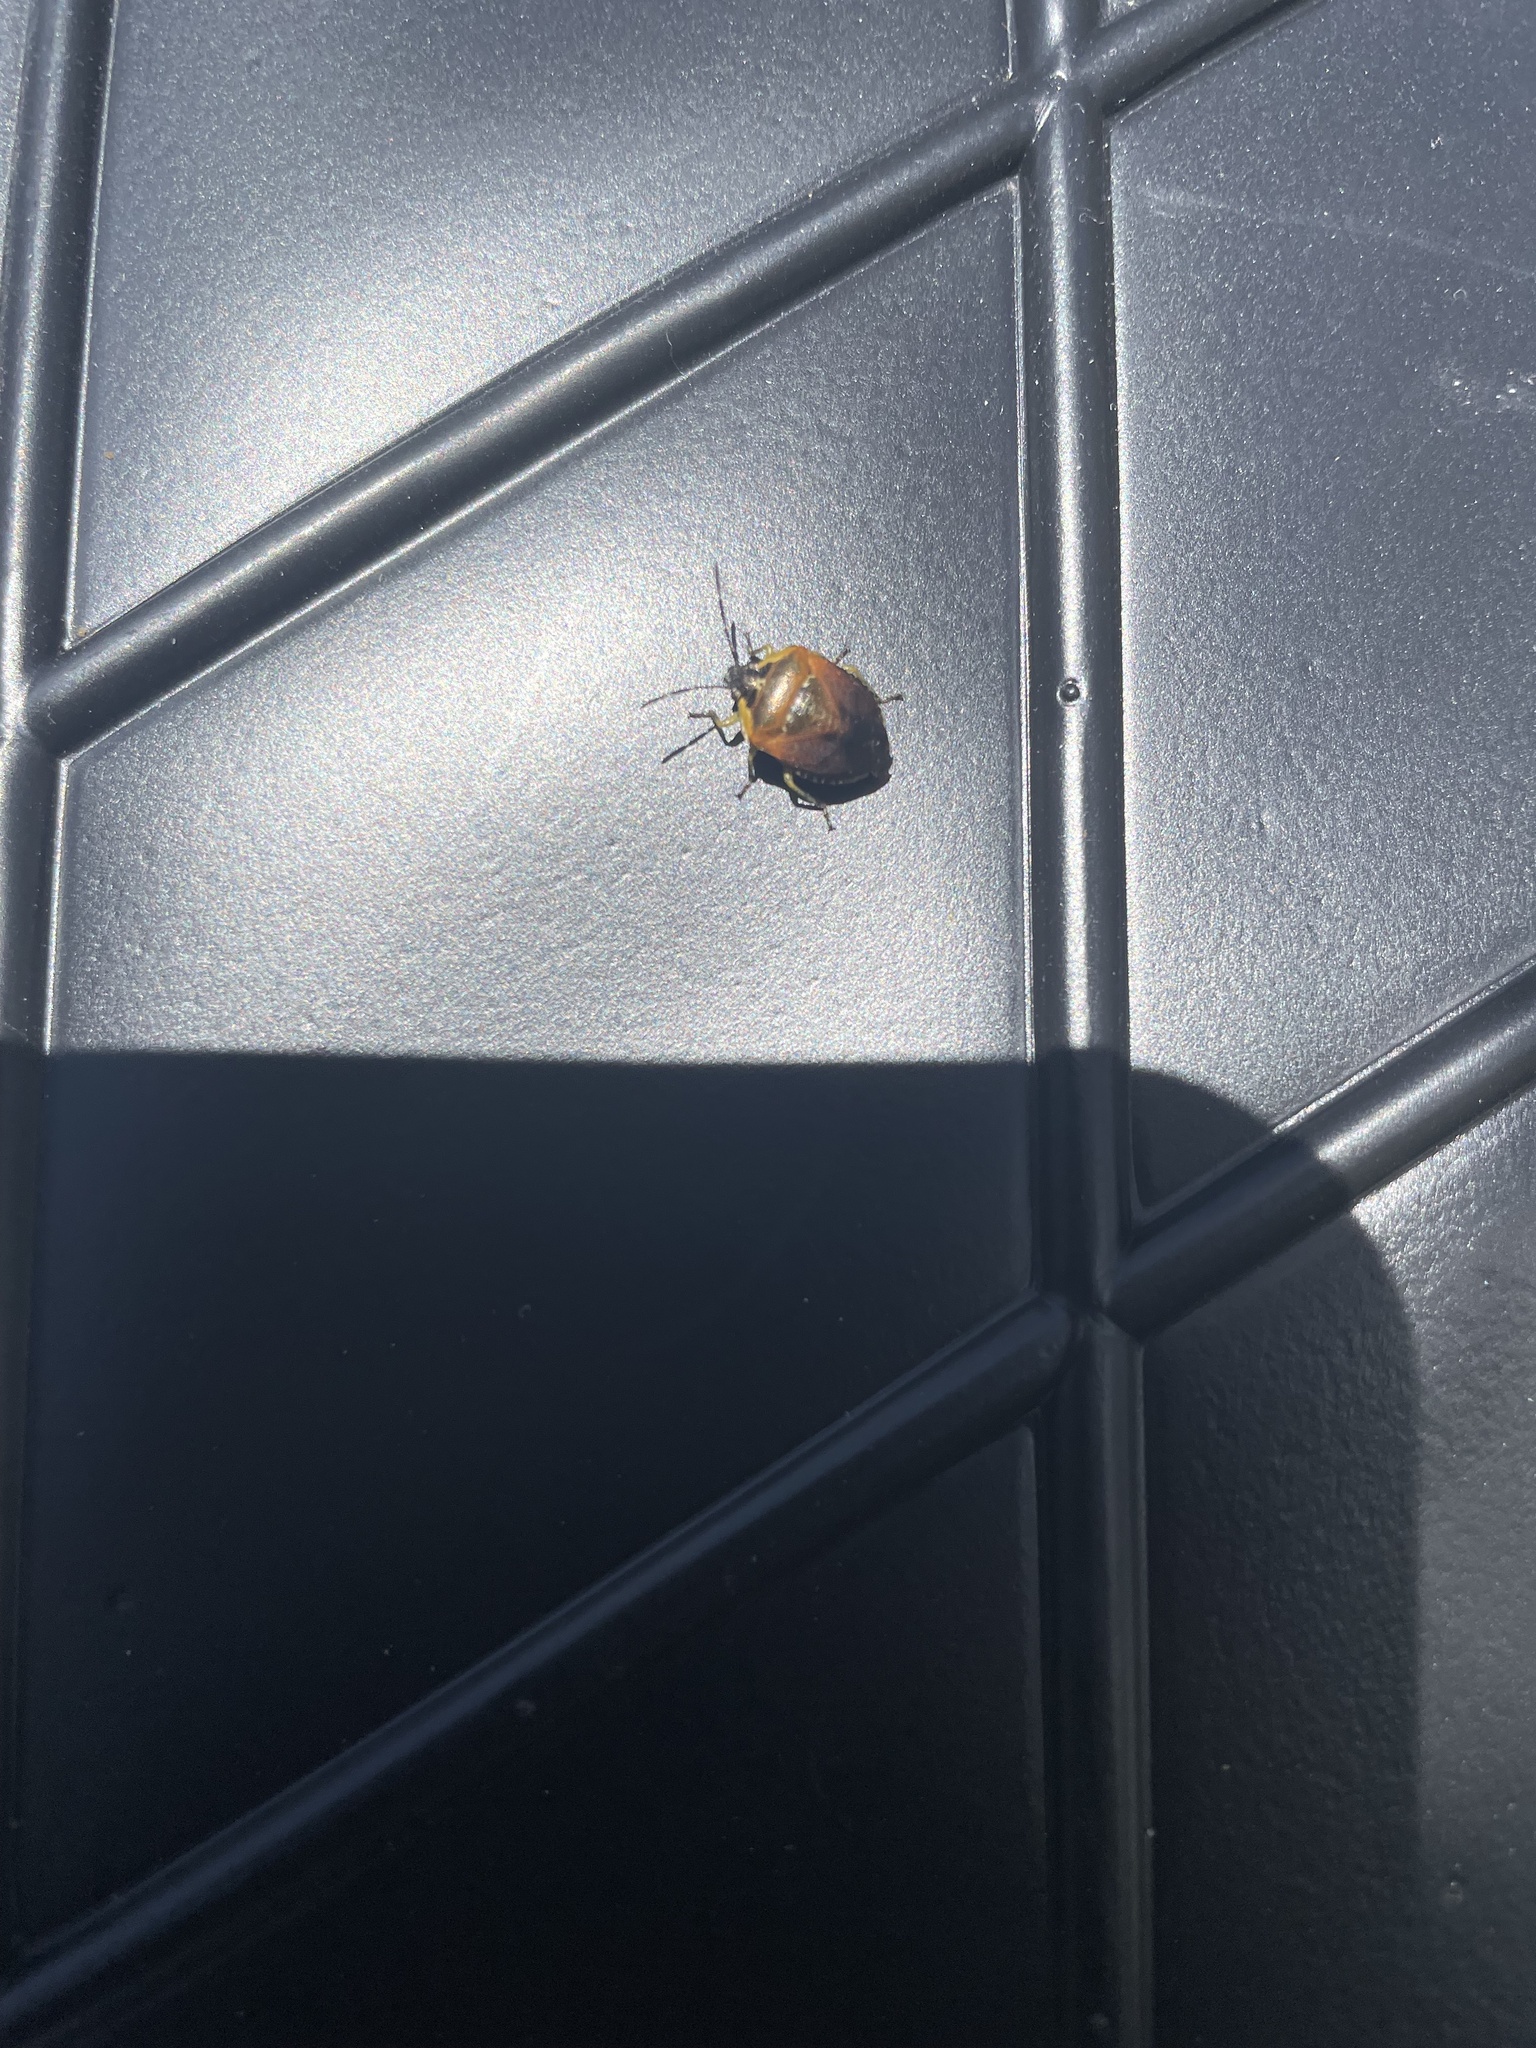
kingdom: Animalia
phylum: Arthropoda
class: Insecta
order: Hemiptera
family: Pentatomidae
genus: Monteithiella
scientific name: Monteithiella
